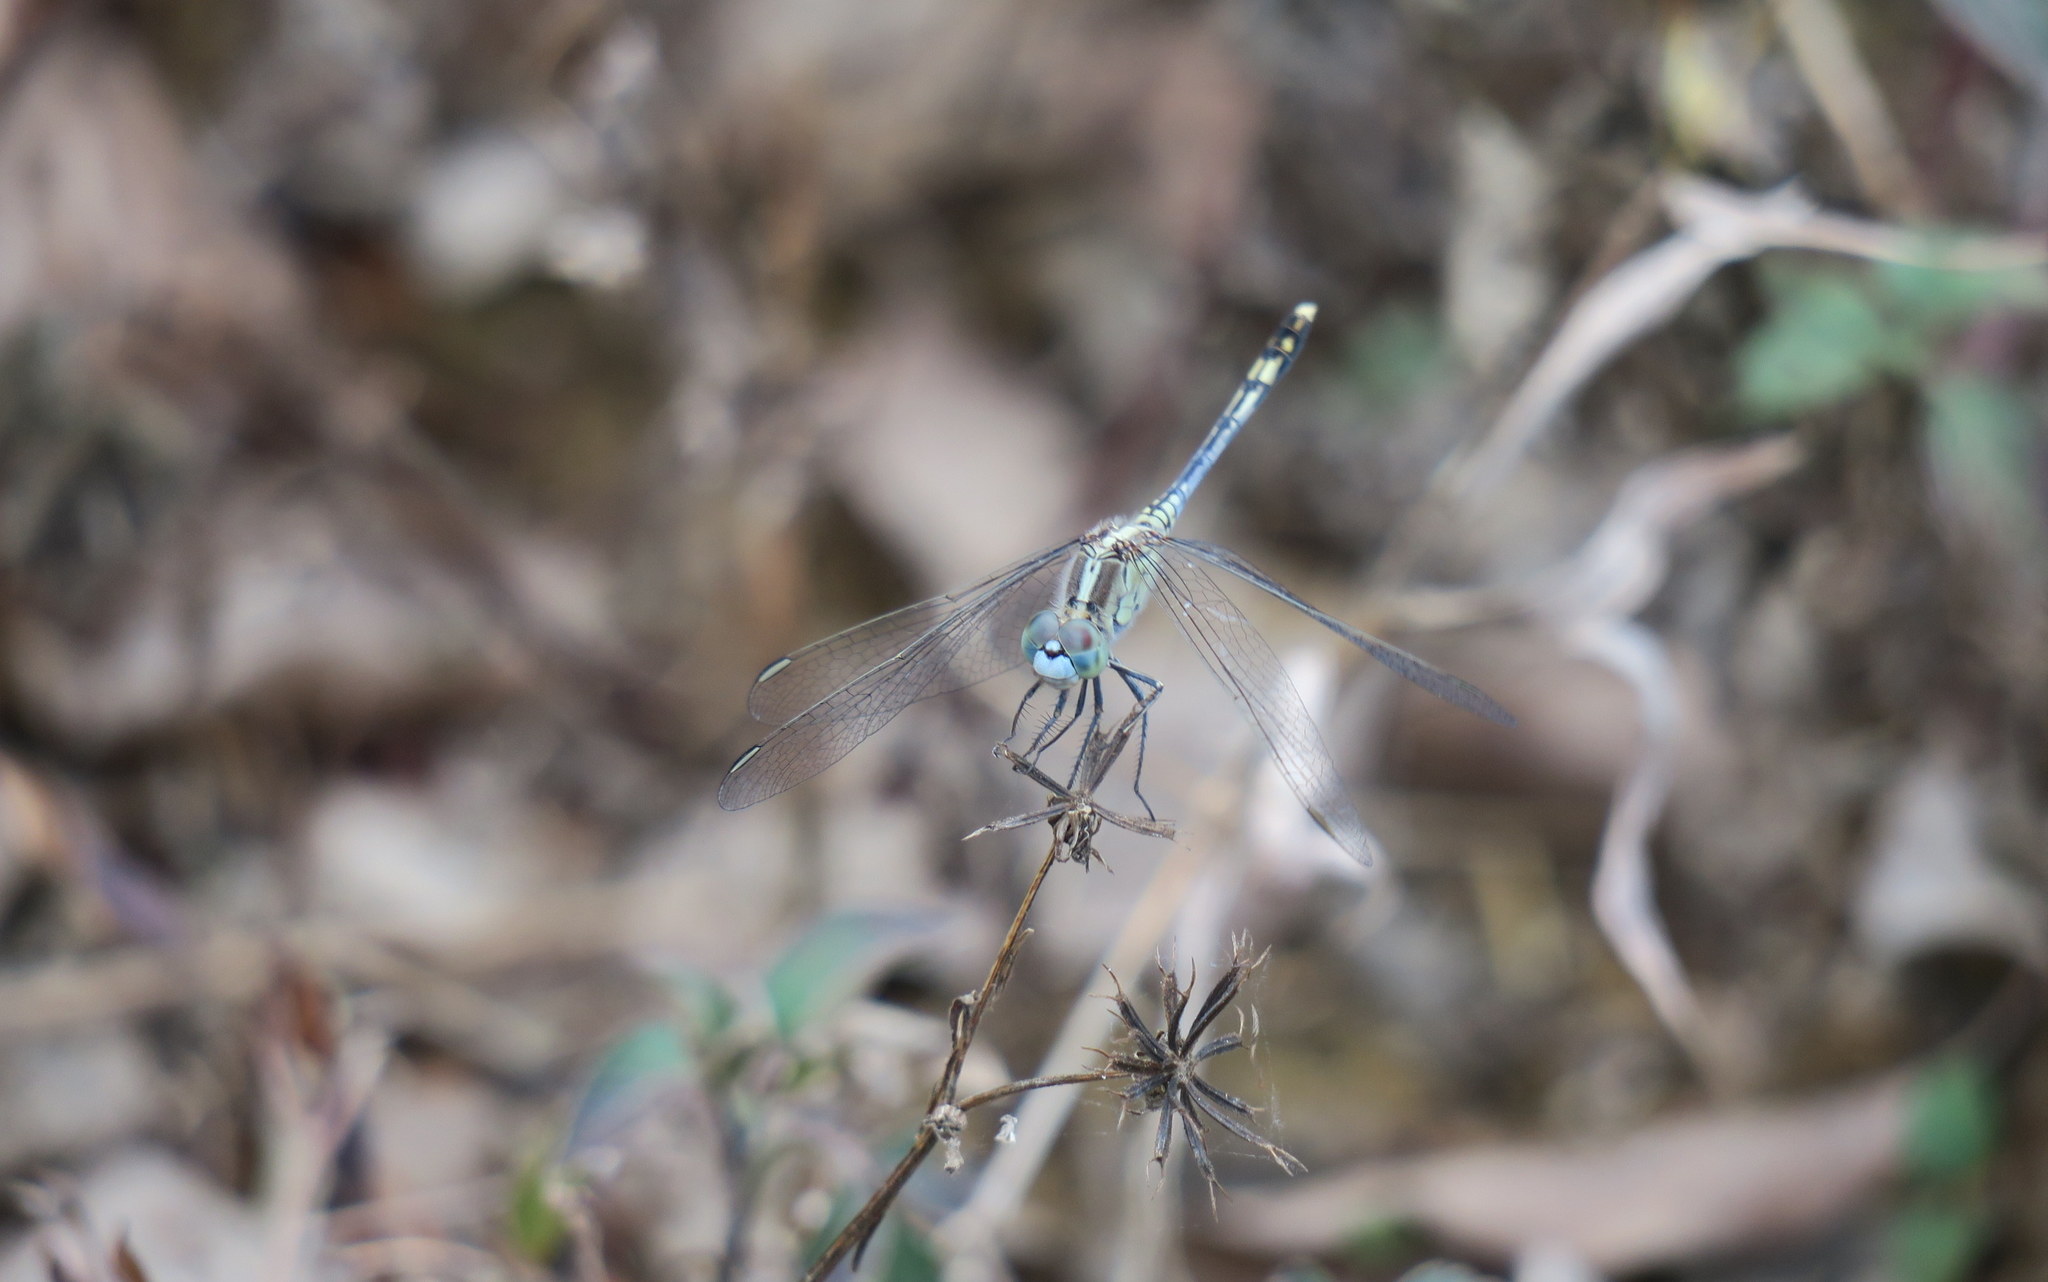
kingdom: Animalia
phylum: Arthropoda
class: Insecta
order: Odonata
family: Libellulidae
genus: Diplacodes
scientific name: Diplacodes trivialis
